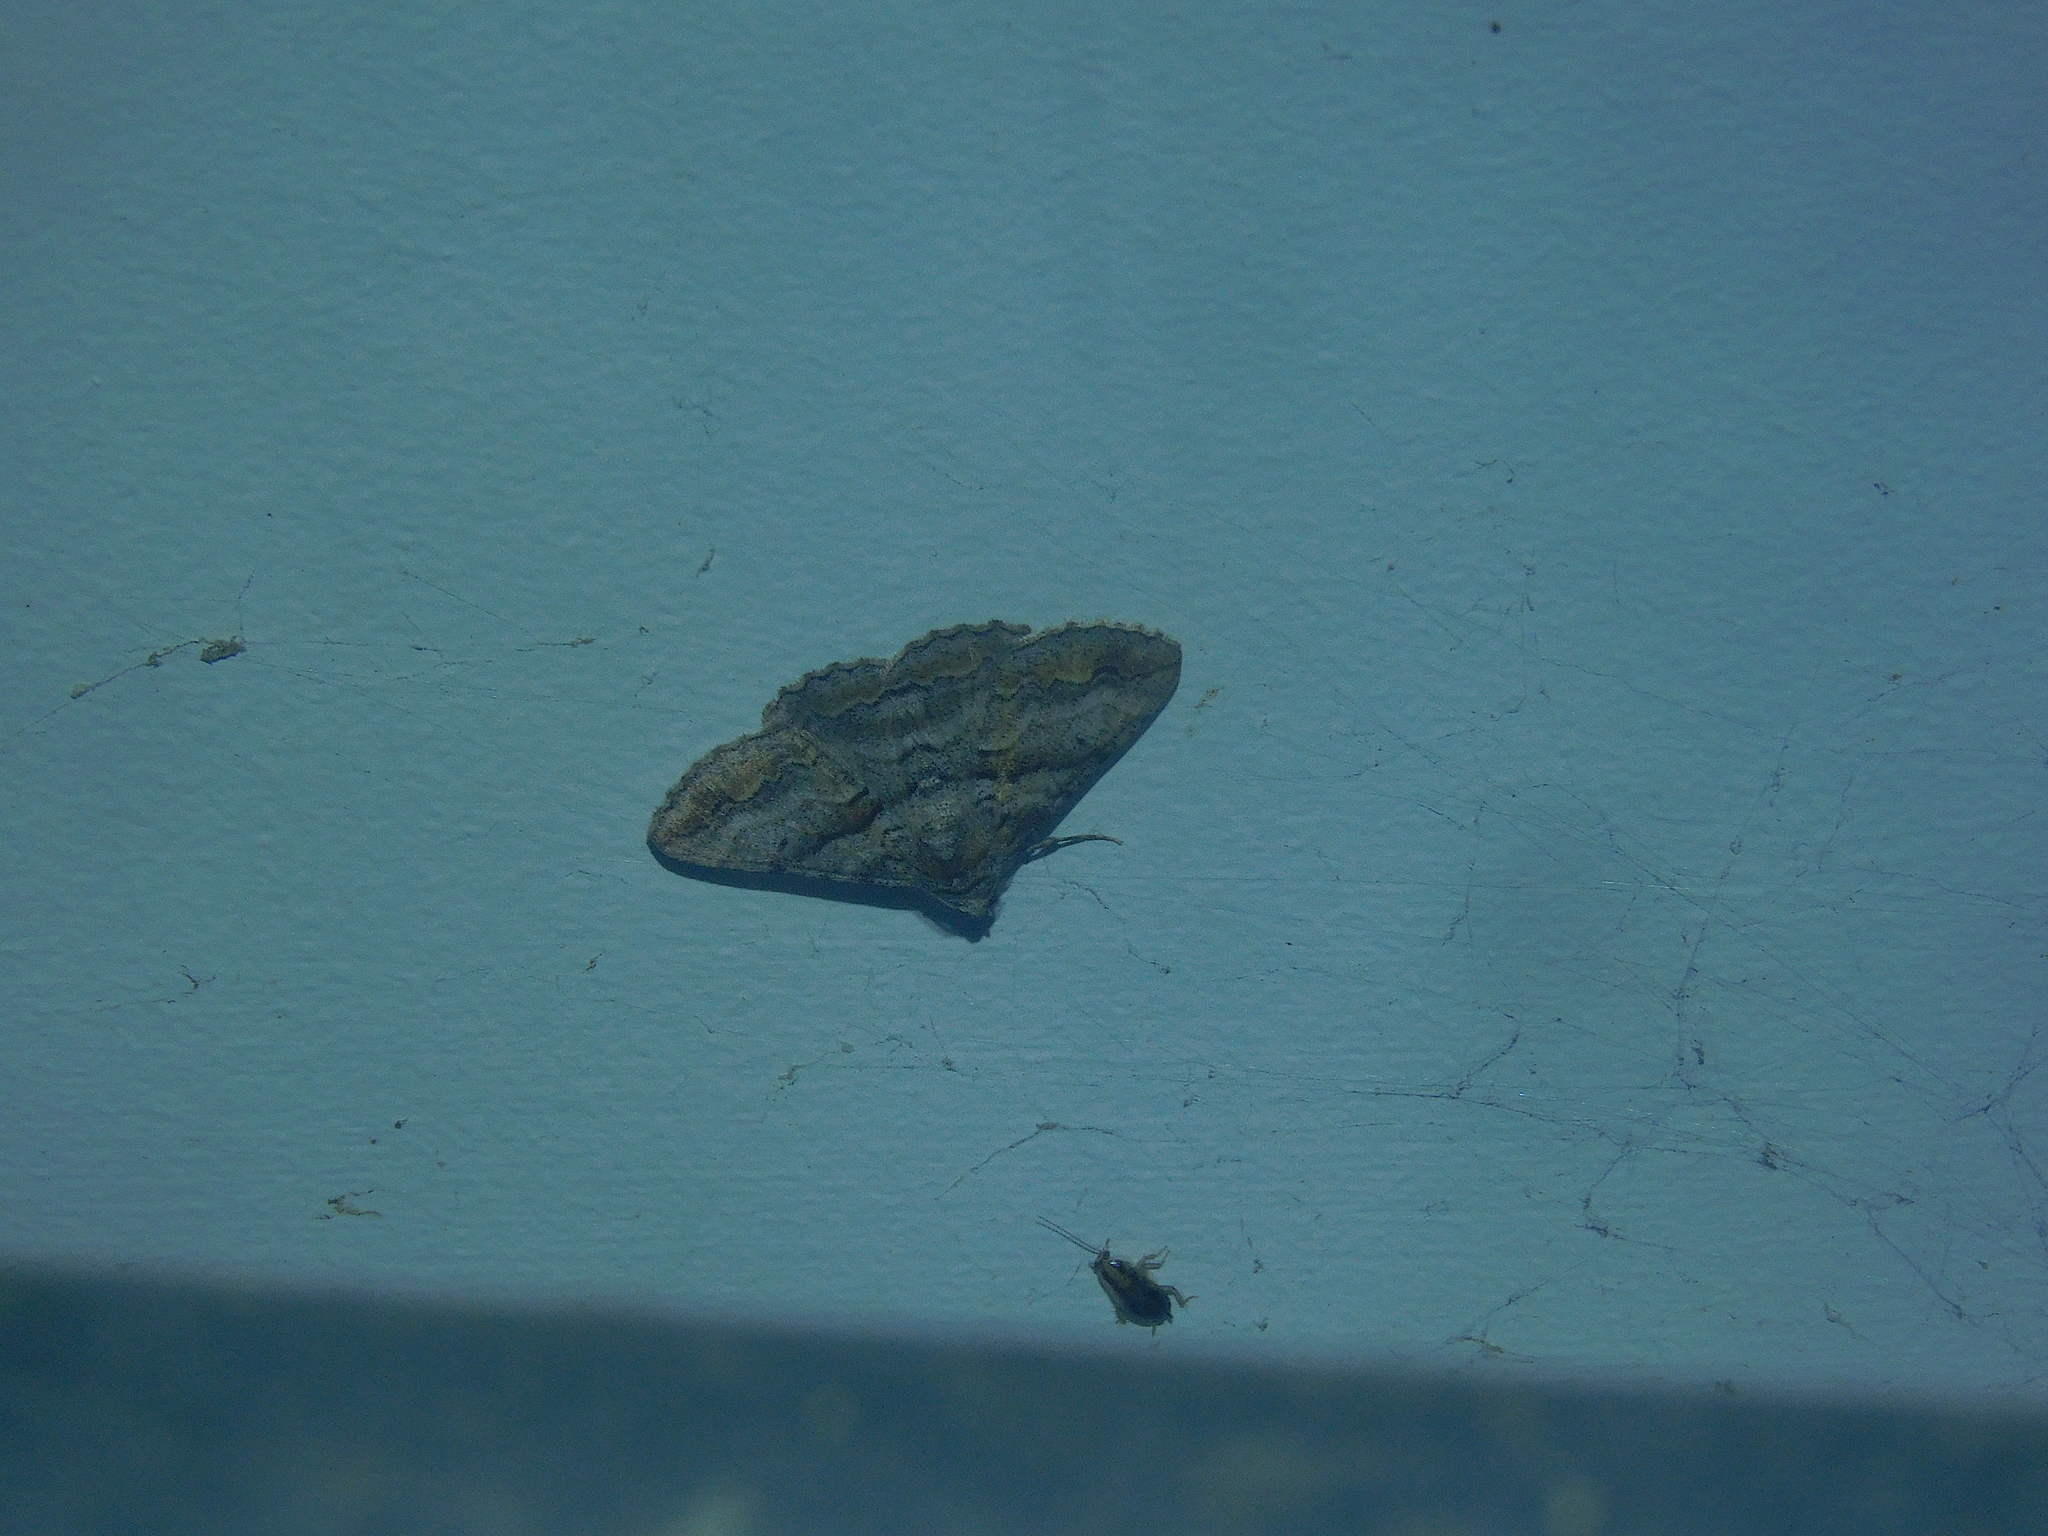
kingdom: Animalia
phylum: Arthropoda
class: Insecta
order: Lepidoptera
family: Geometridae
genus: Gastrinodes
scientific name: Gastrinodes bitaeniaria
